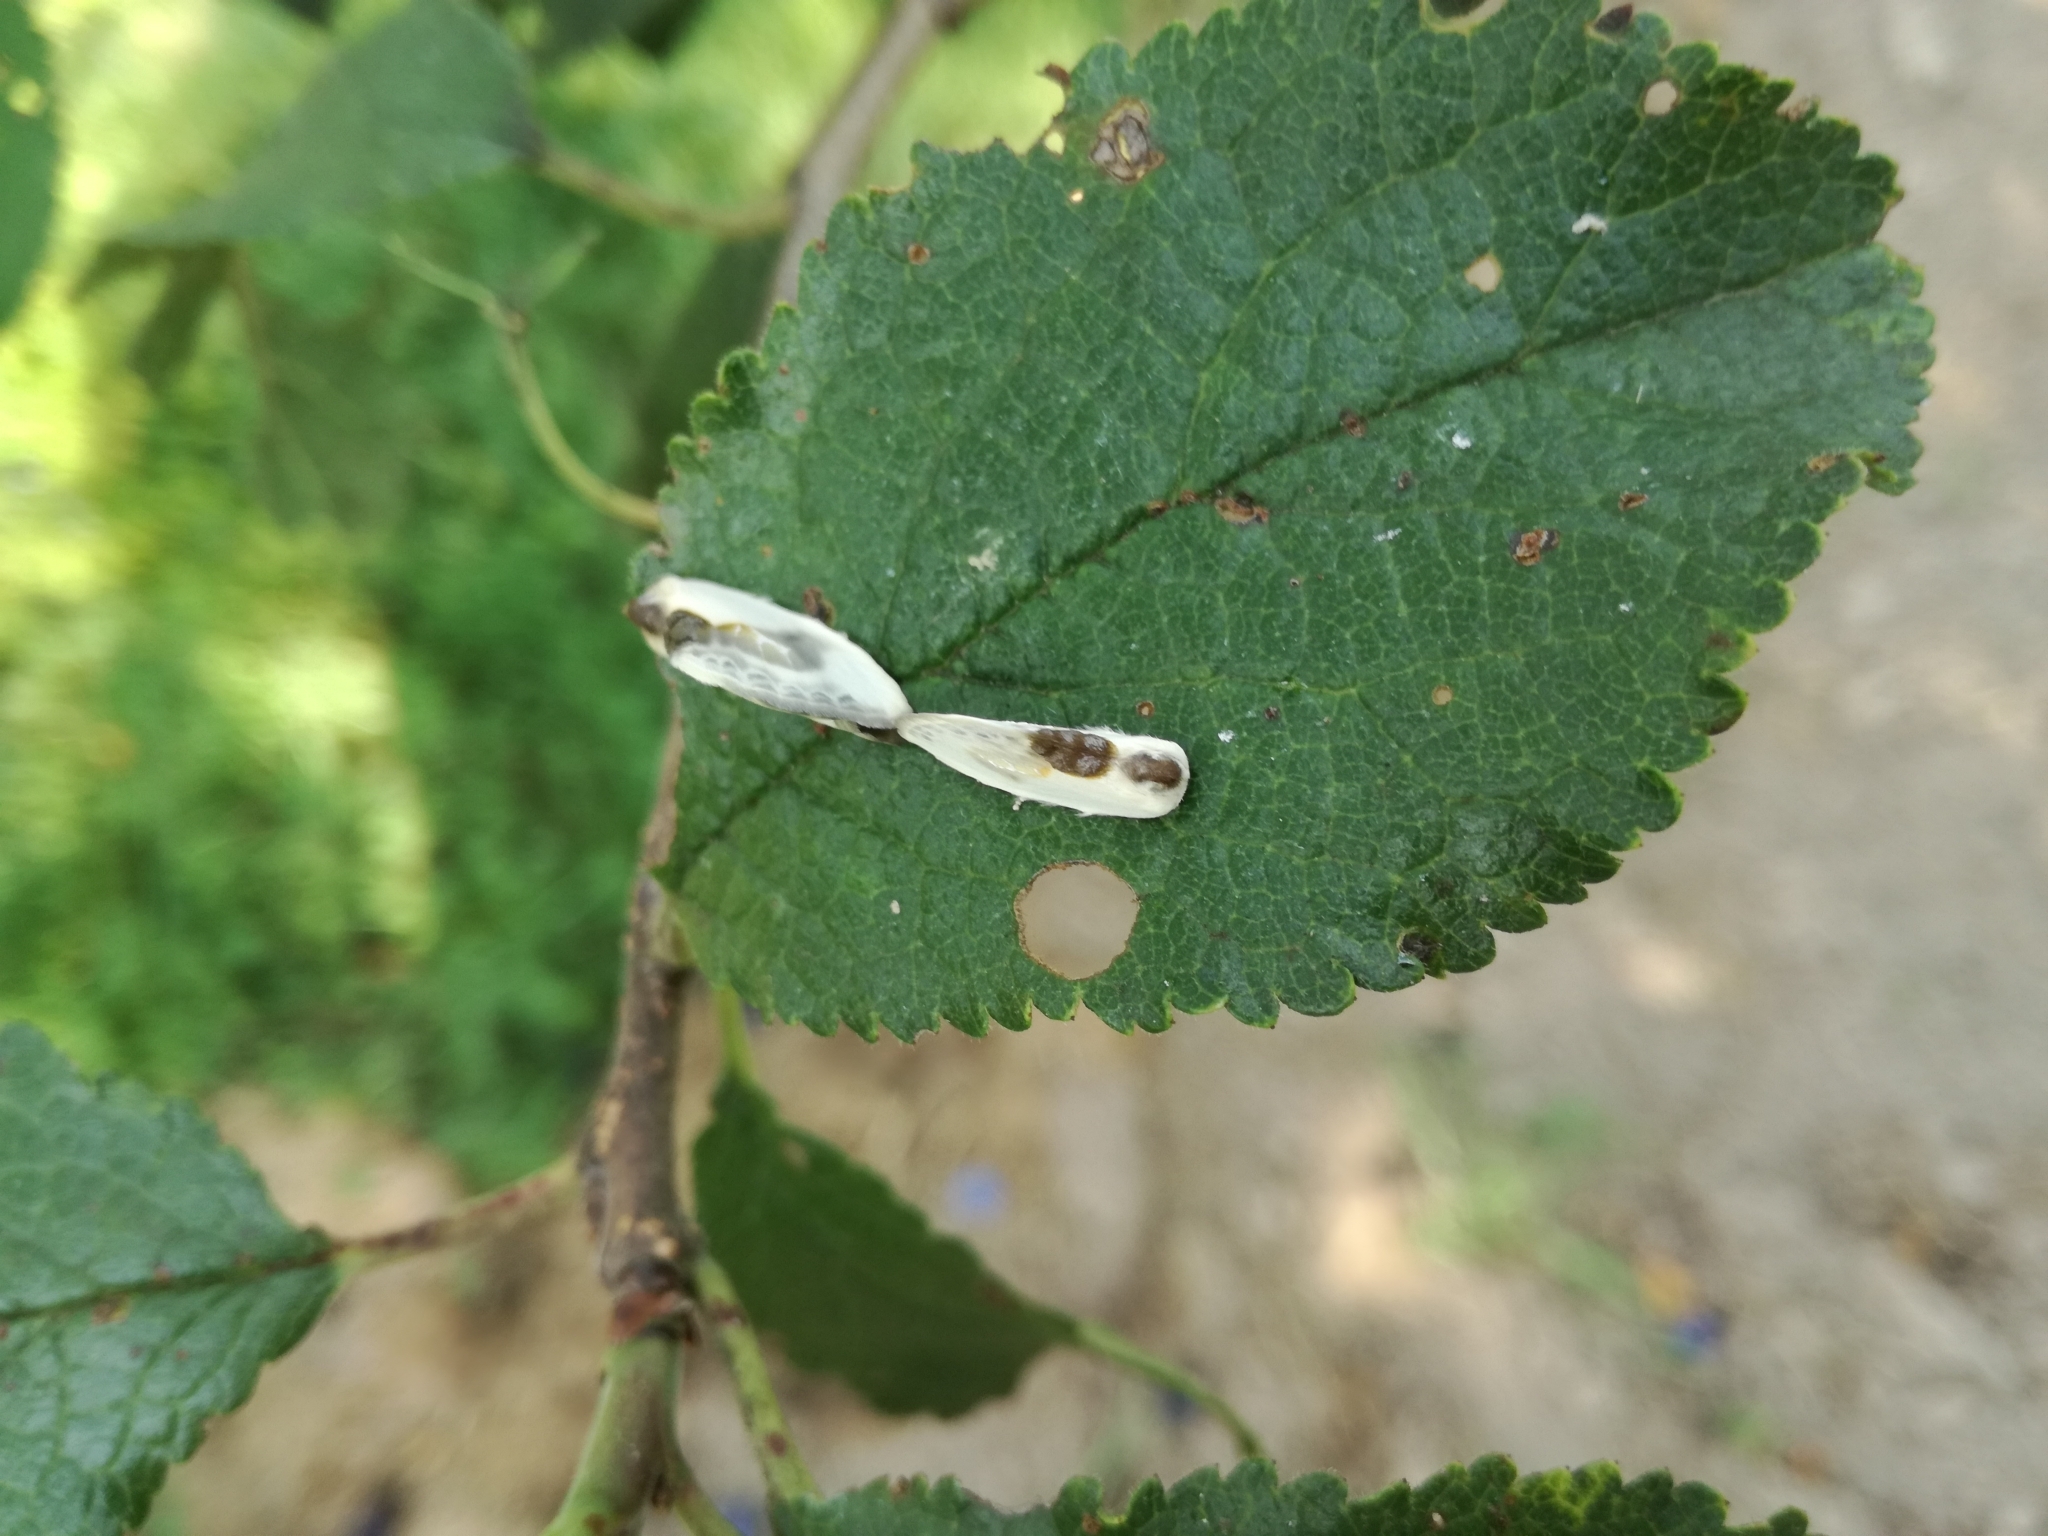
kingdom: Animalia
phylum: Arthropoda
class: Insecta
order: Lepidoptera
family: Drepanidae
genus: Cilix
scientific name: Cilix glaucata
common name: Chinese character
